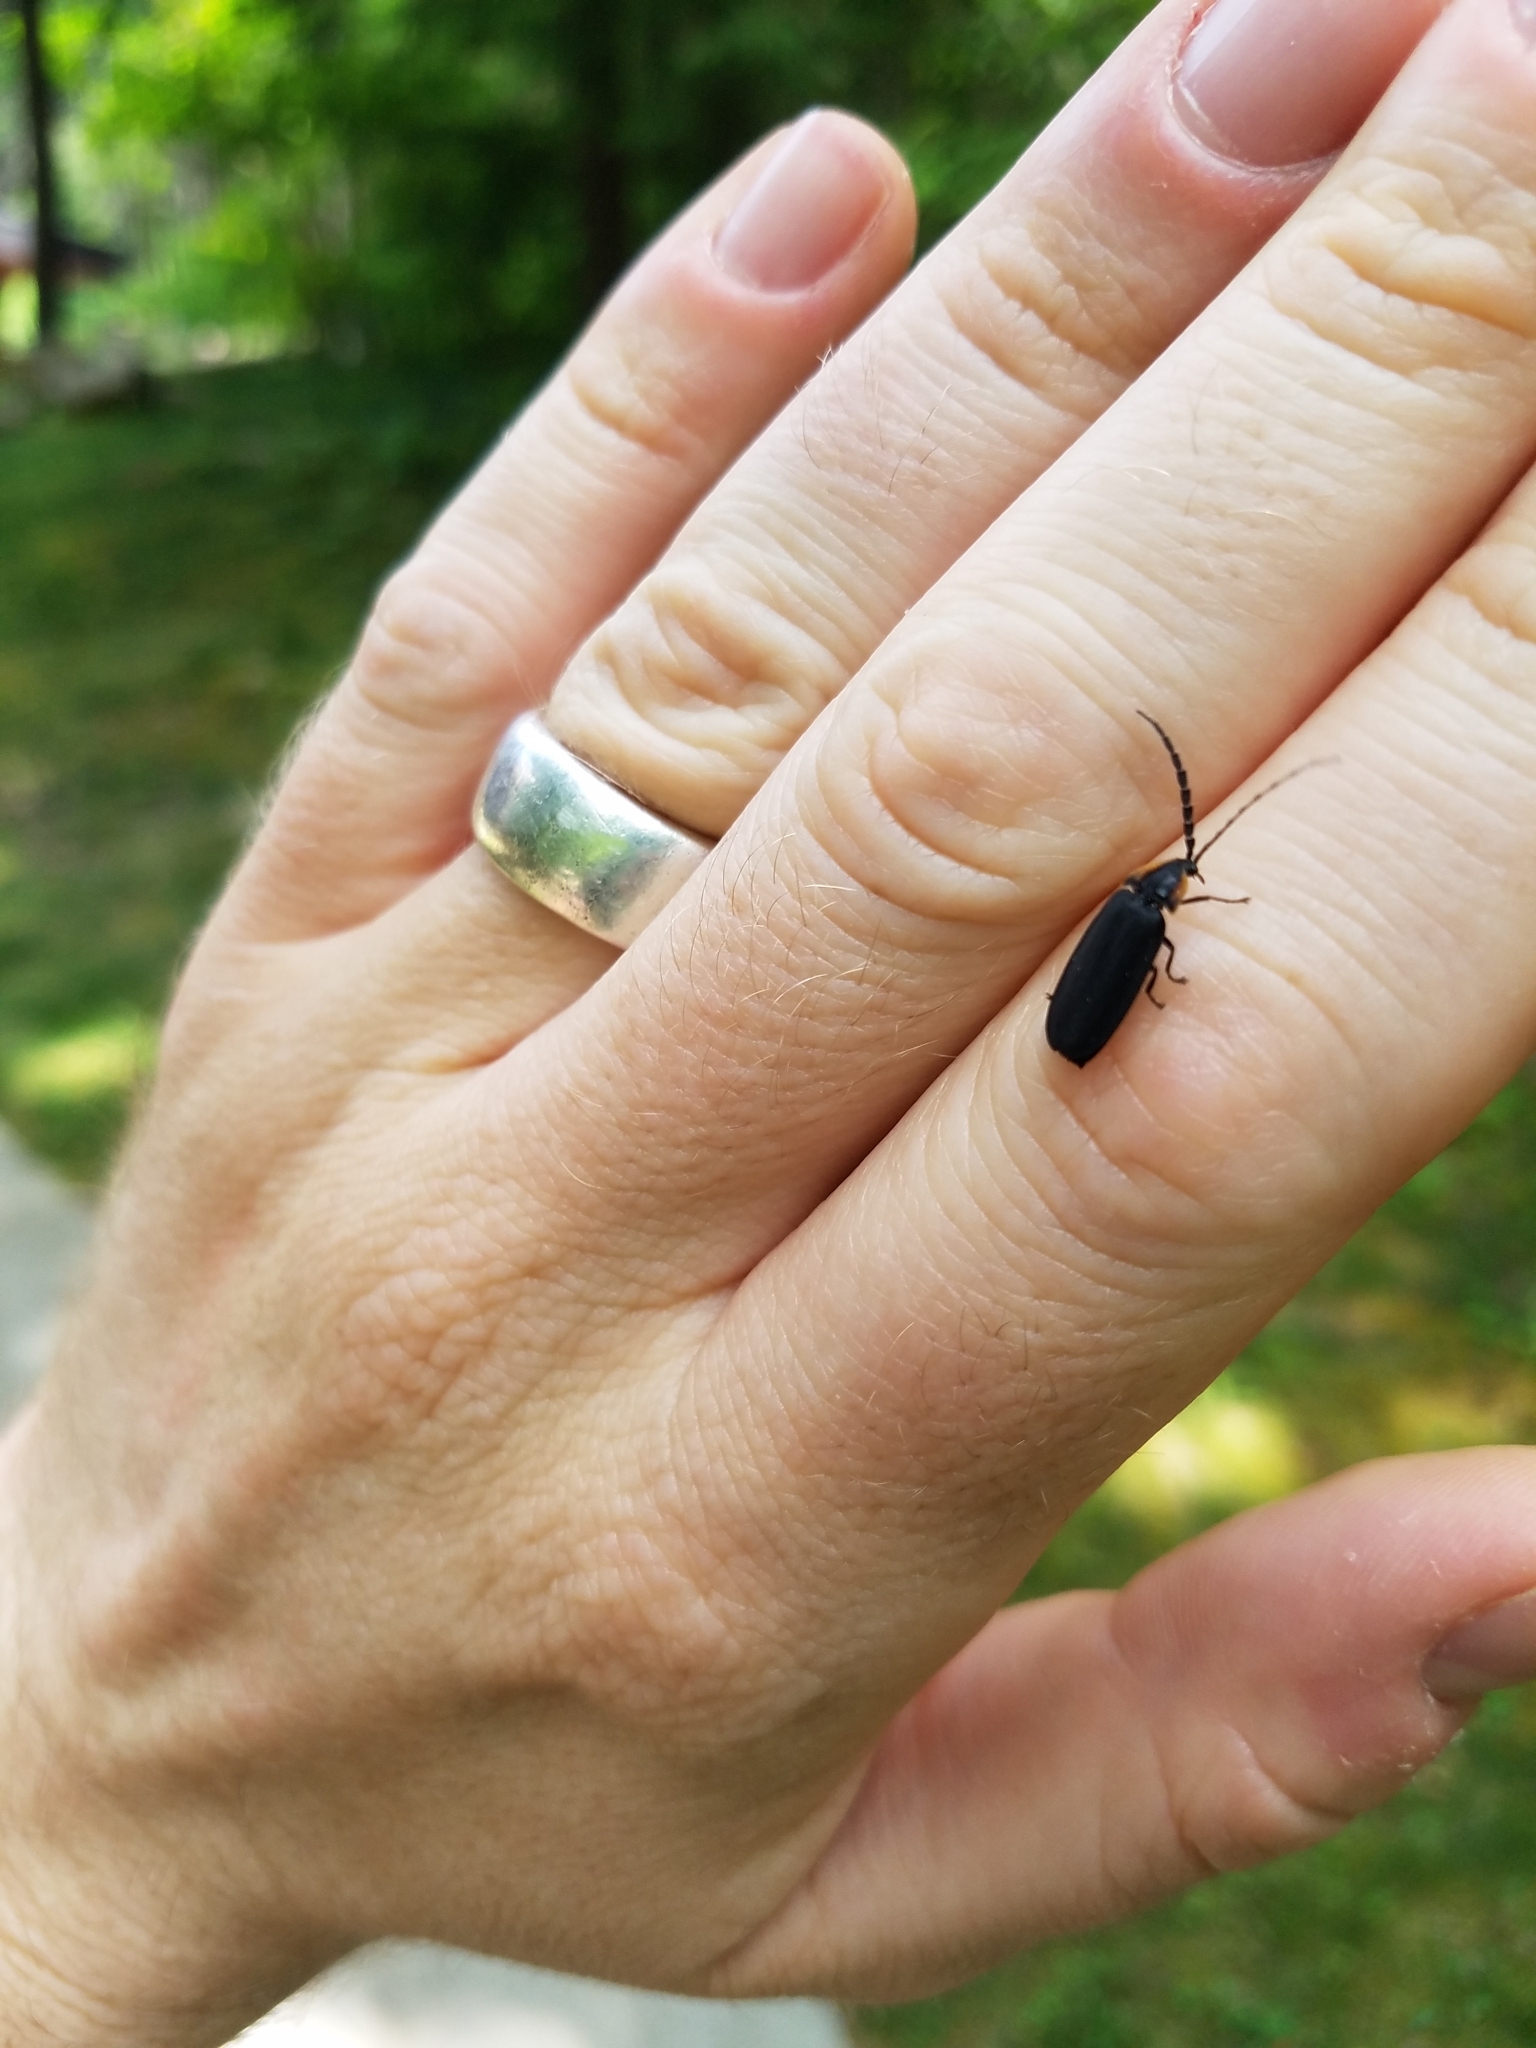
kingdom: Animalia
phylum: Arthropoda
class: Insecta
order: Coleoptera
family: Lampyridae
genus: Lucidota
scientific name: Lucidota atra
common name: Black firefly
